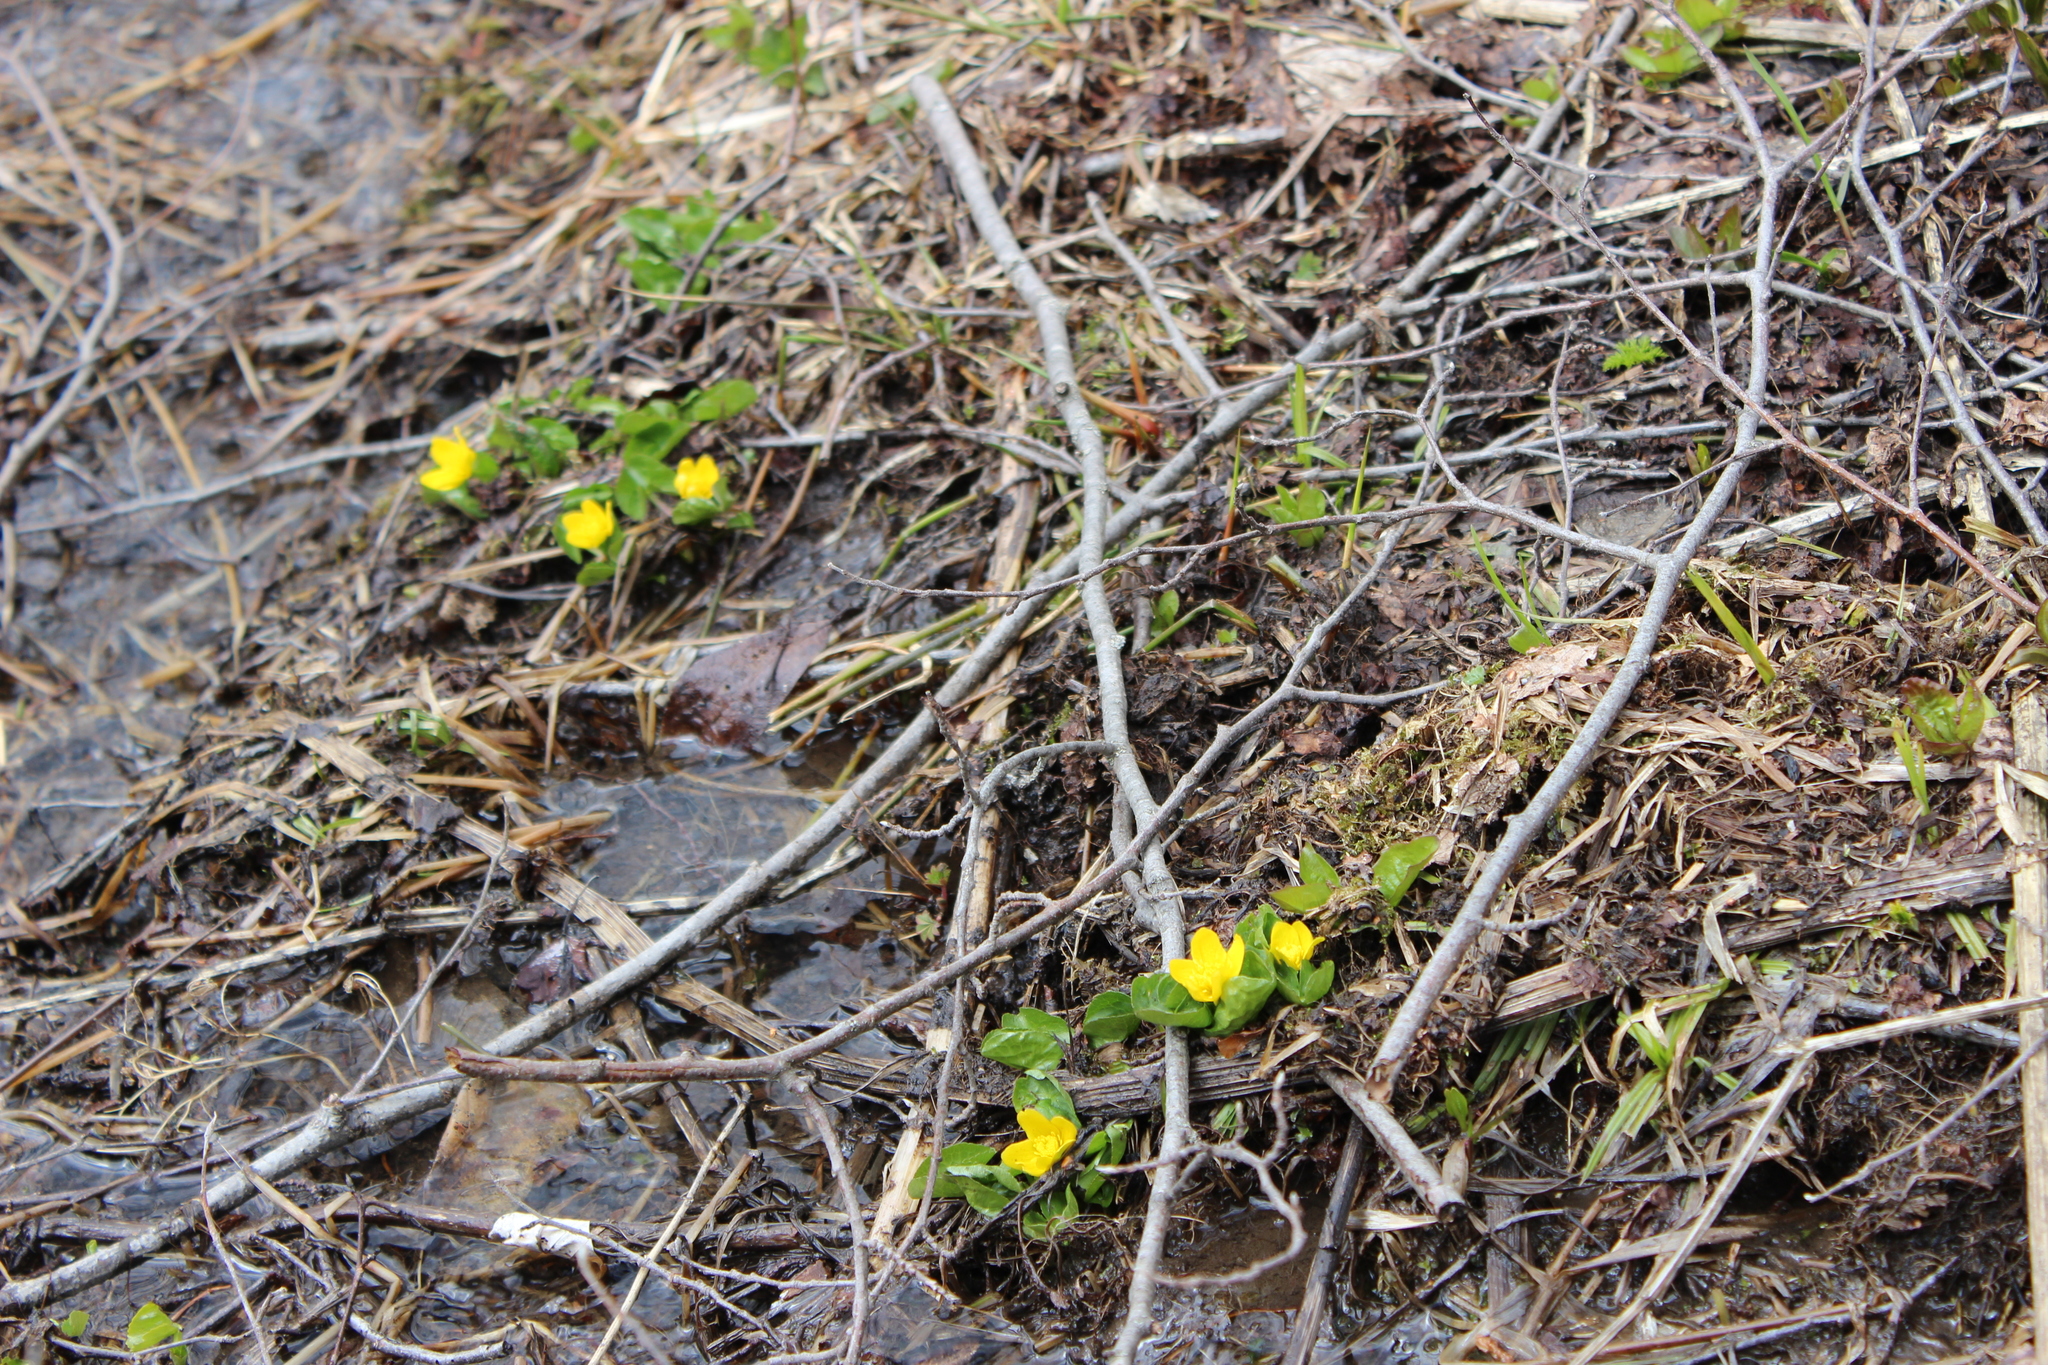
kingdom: Plantae
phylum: Tracheophyta
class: Magnoliopsida
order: Ranunculales
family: Ranunculaceae
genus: Caltha
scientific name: Caltha palustris
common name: Marsh marigold
